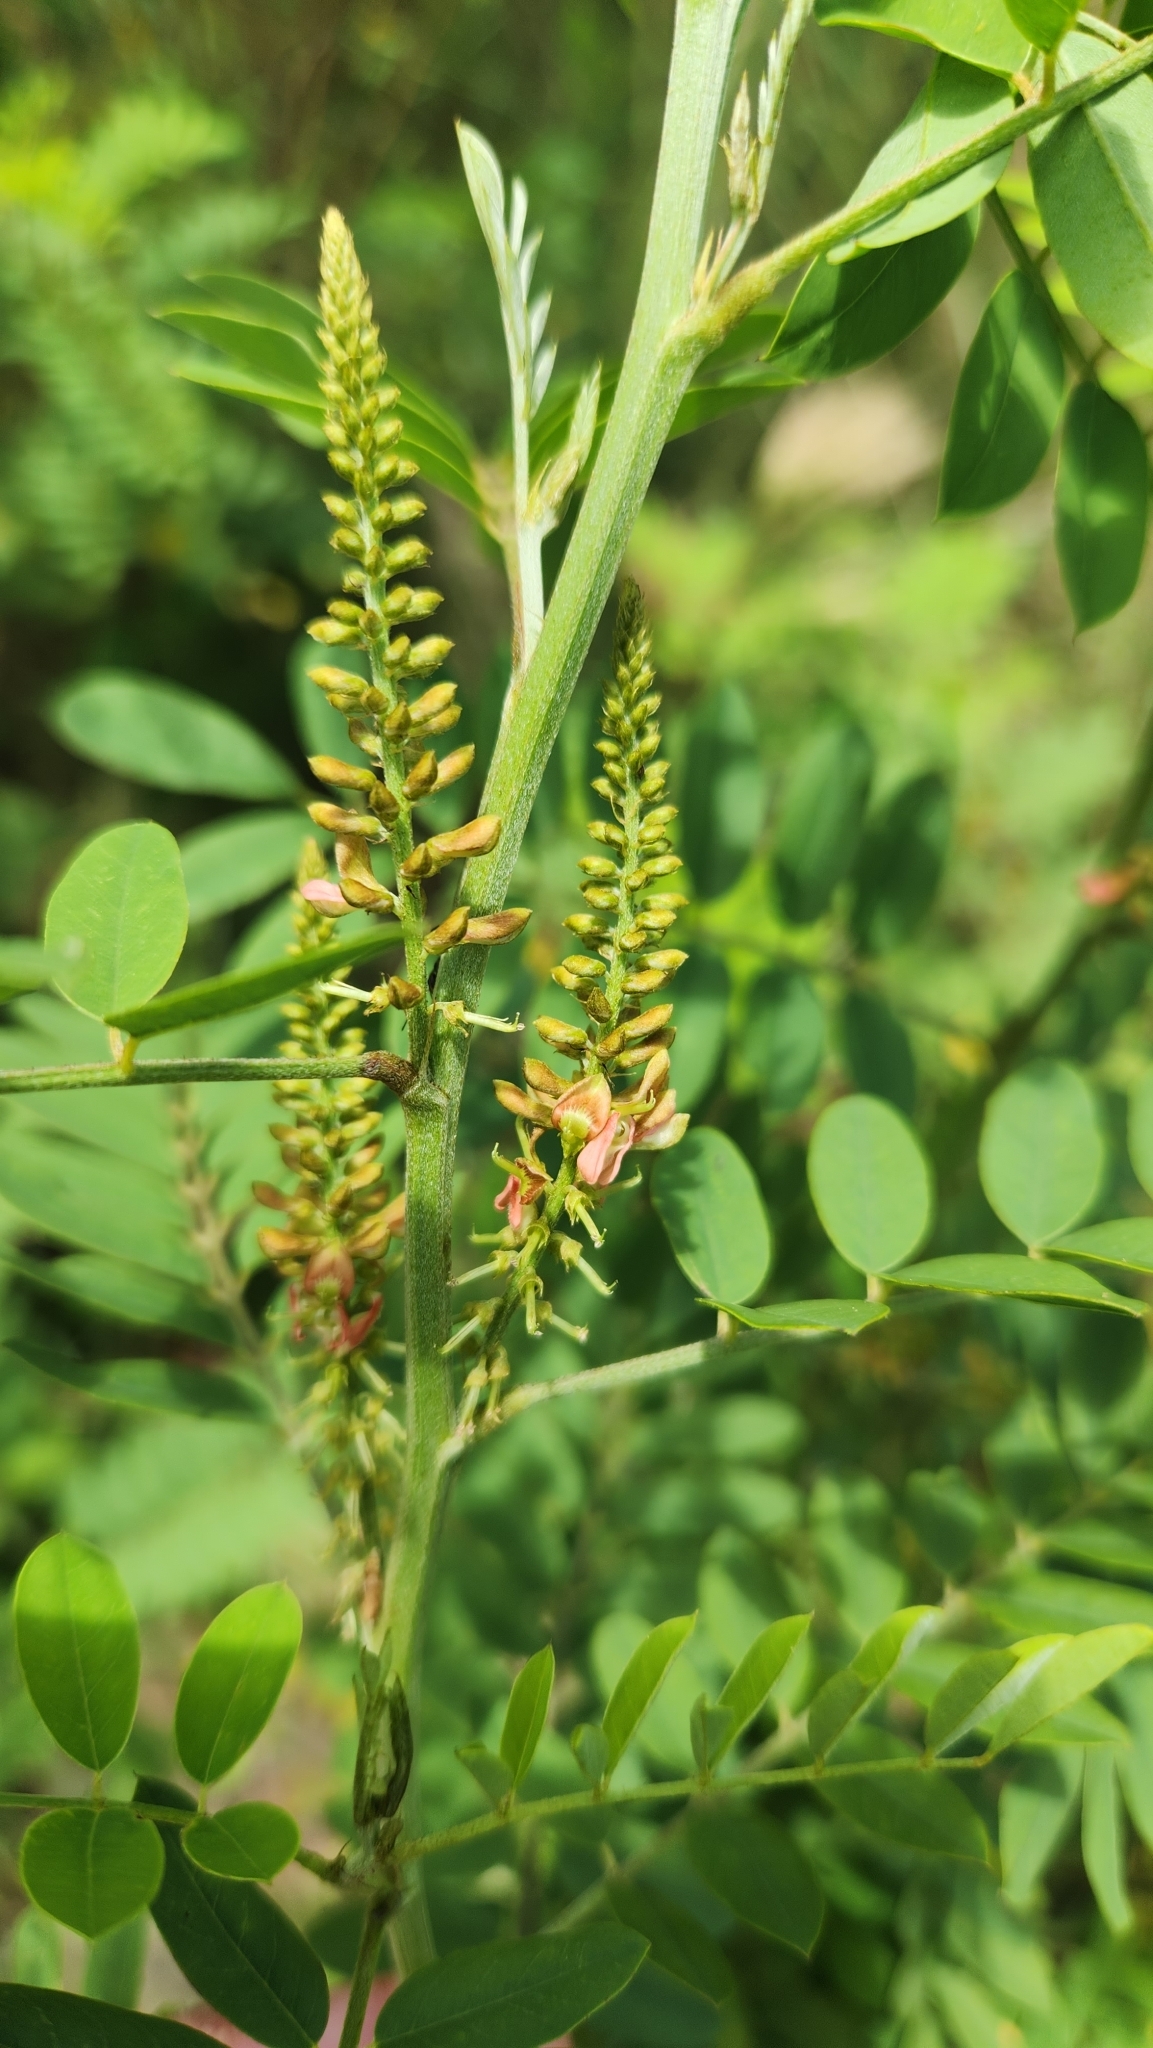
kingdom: Plantae
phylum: Tracheophyta
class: Magnoliopsida
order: Fabales
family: Fabaceae
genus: Indigofera
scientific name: Indigofera suffruticosa
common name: Anil de pasto
